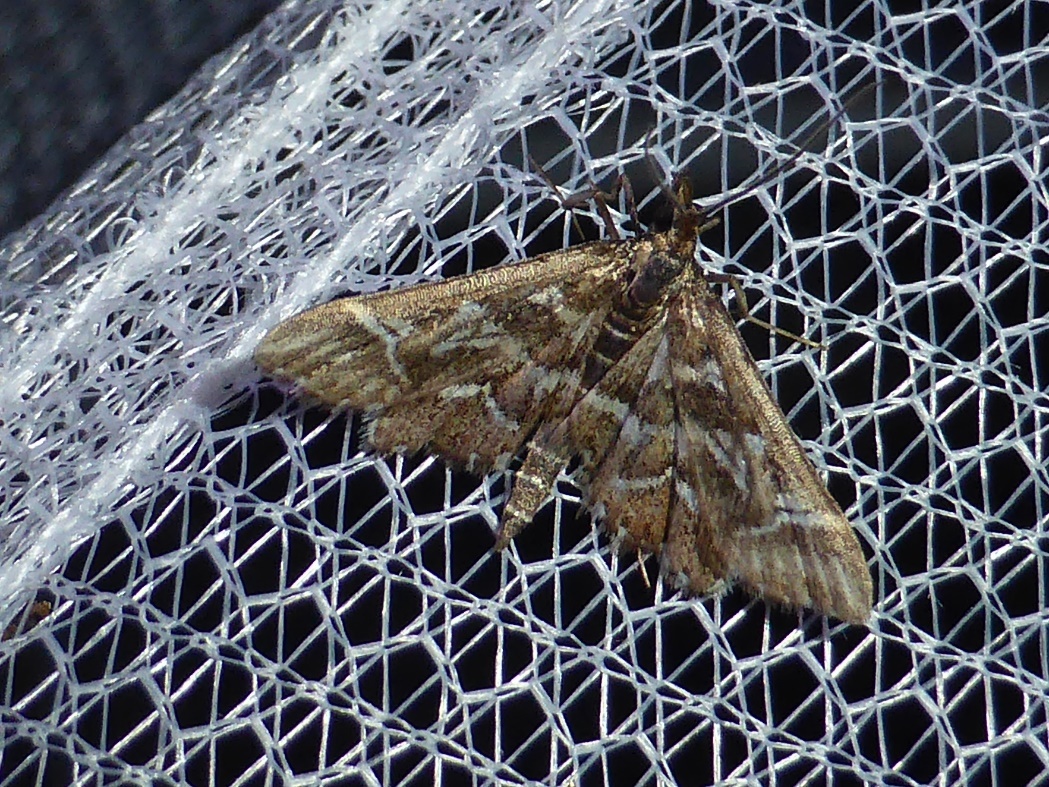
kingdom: Animalia
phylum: Arthropoda
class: Insecta
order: Lepidoptera
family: Crambidae
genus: Diasemia
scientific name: Diasemia reticularis
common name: Lettered china-mark
